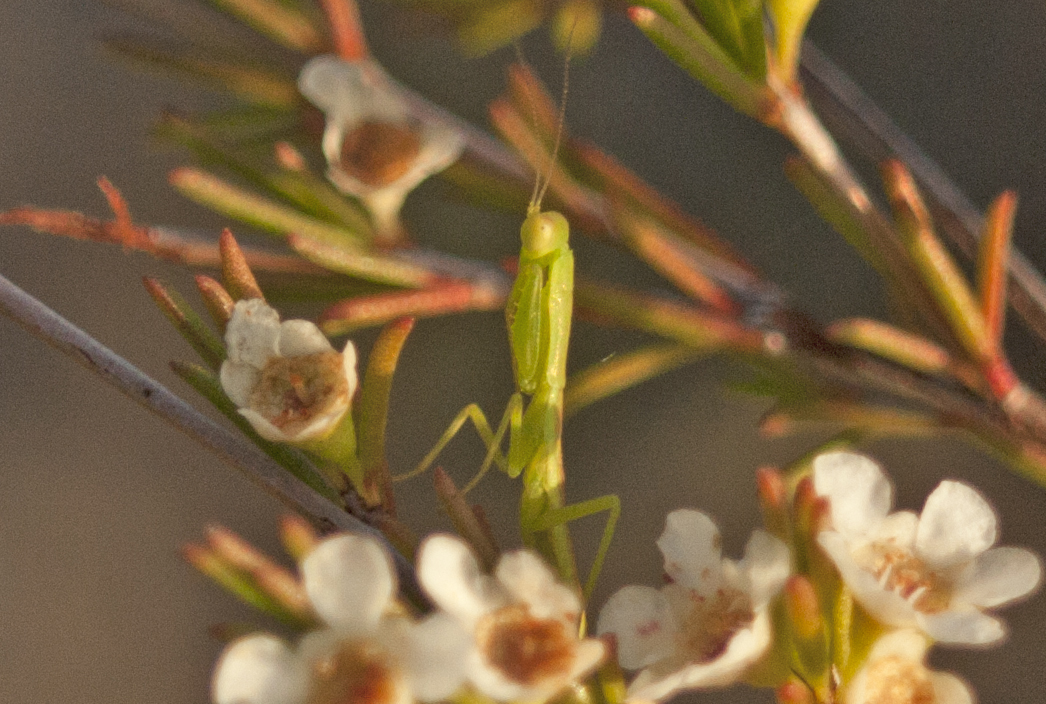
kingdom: Animalia
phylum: Arthropoda
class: Insecta
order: Mantodea
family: Mantidae
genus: Orthodera
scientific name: Orthodera ministralis
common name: Mantis
